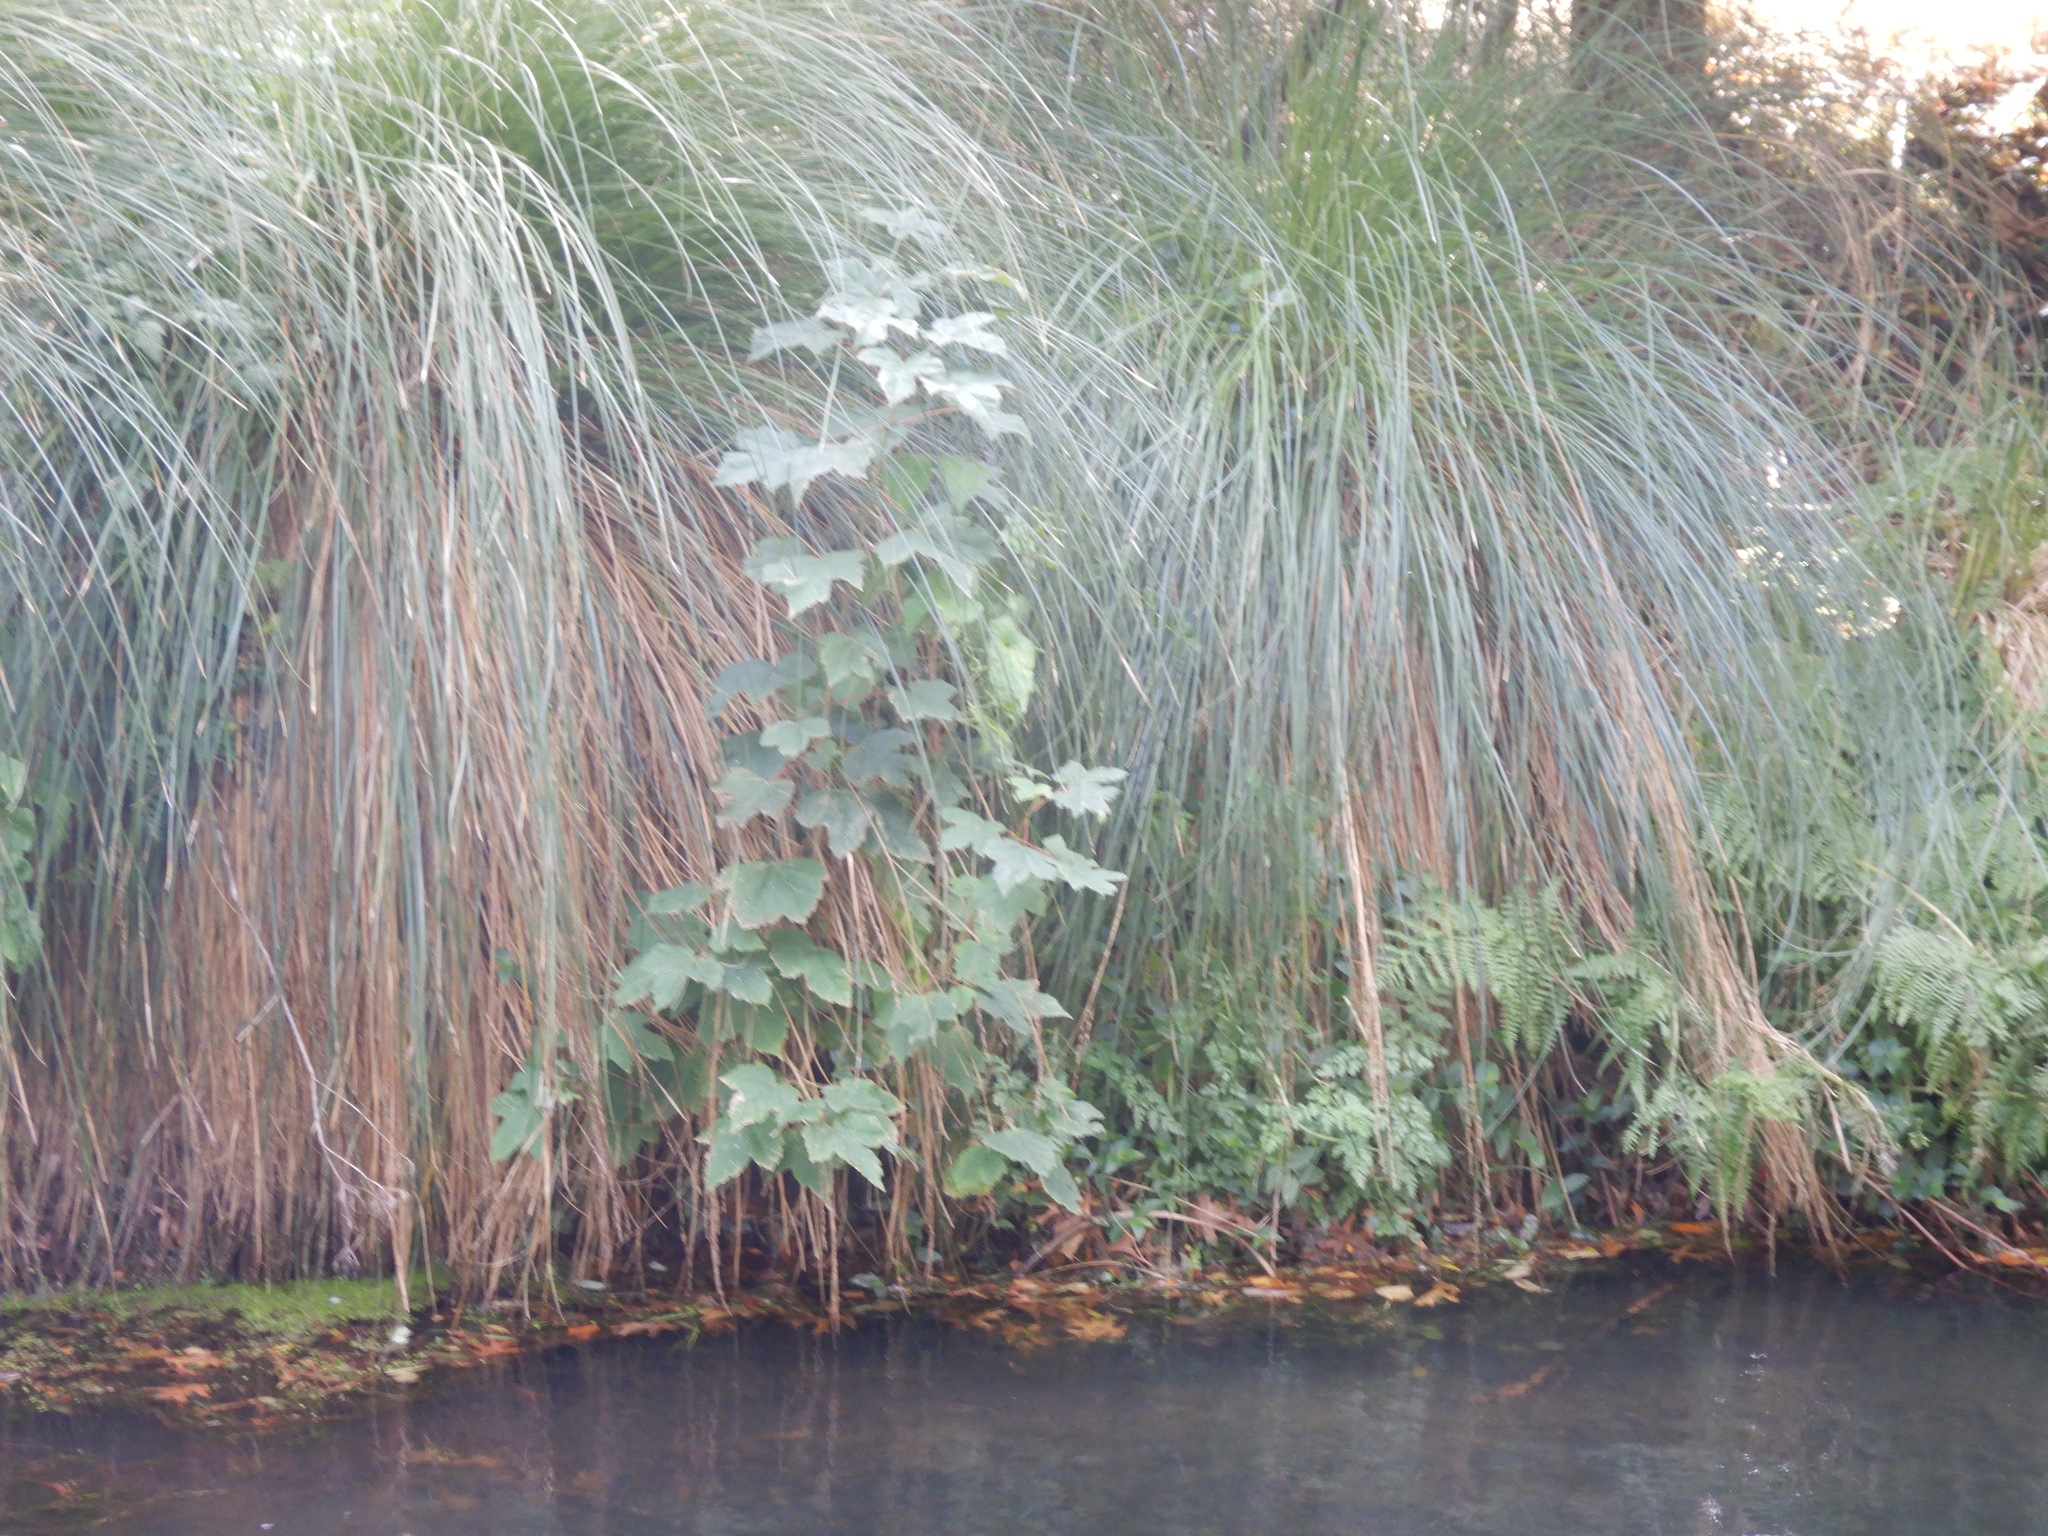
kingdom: Plantae
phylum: Tracheophyta
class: Magnoliopsida
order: Sapindales
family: Sapindaceae
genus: Acer
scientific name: Acer pseudoplatanus
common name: Sycamore
